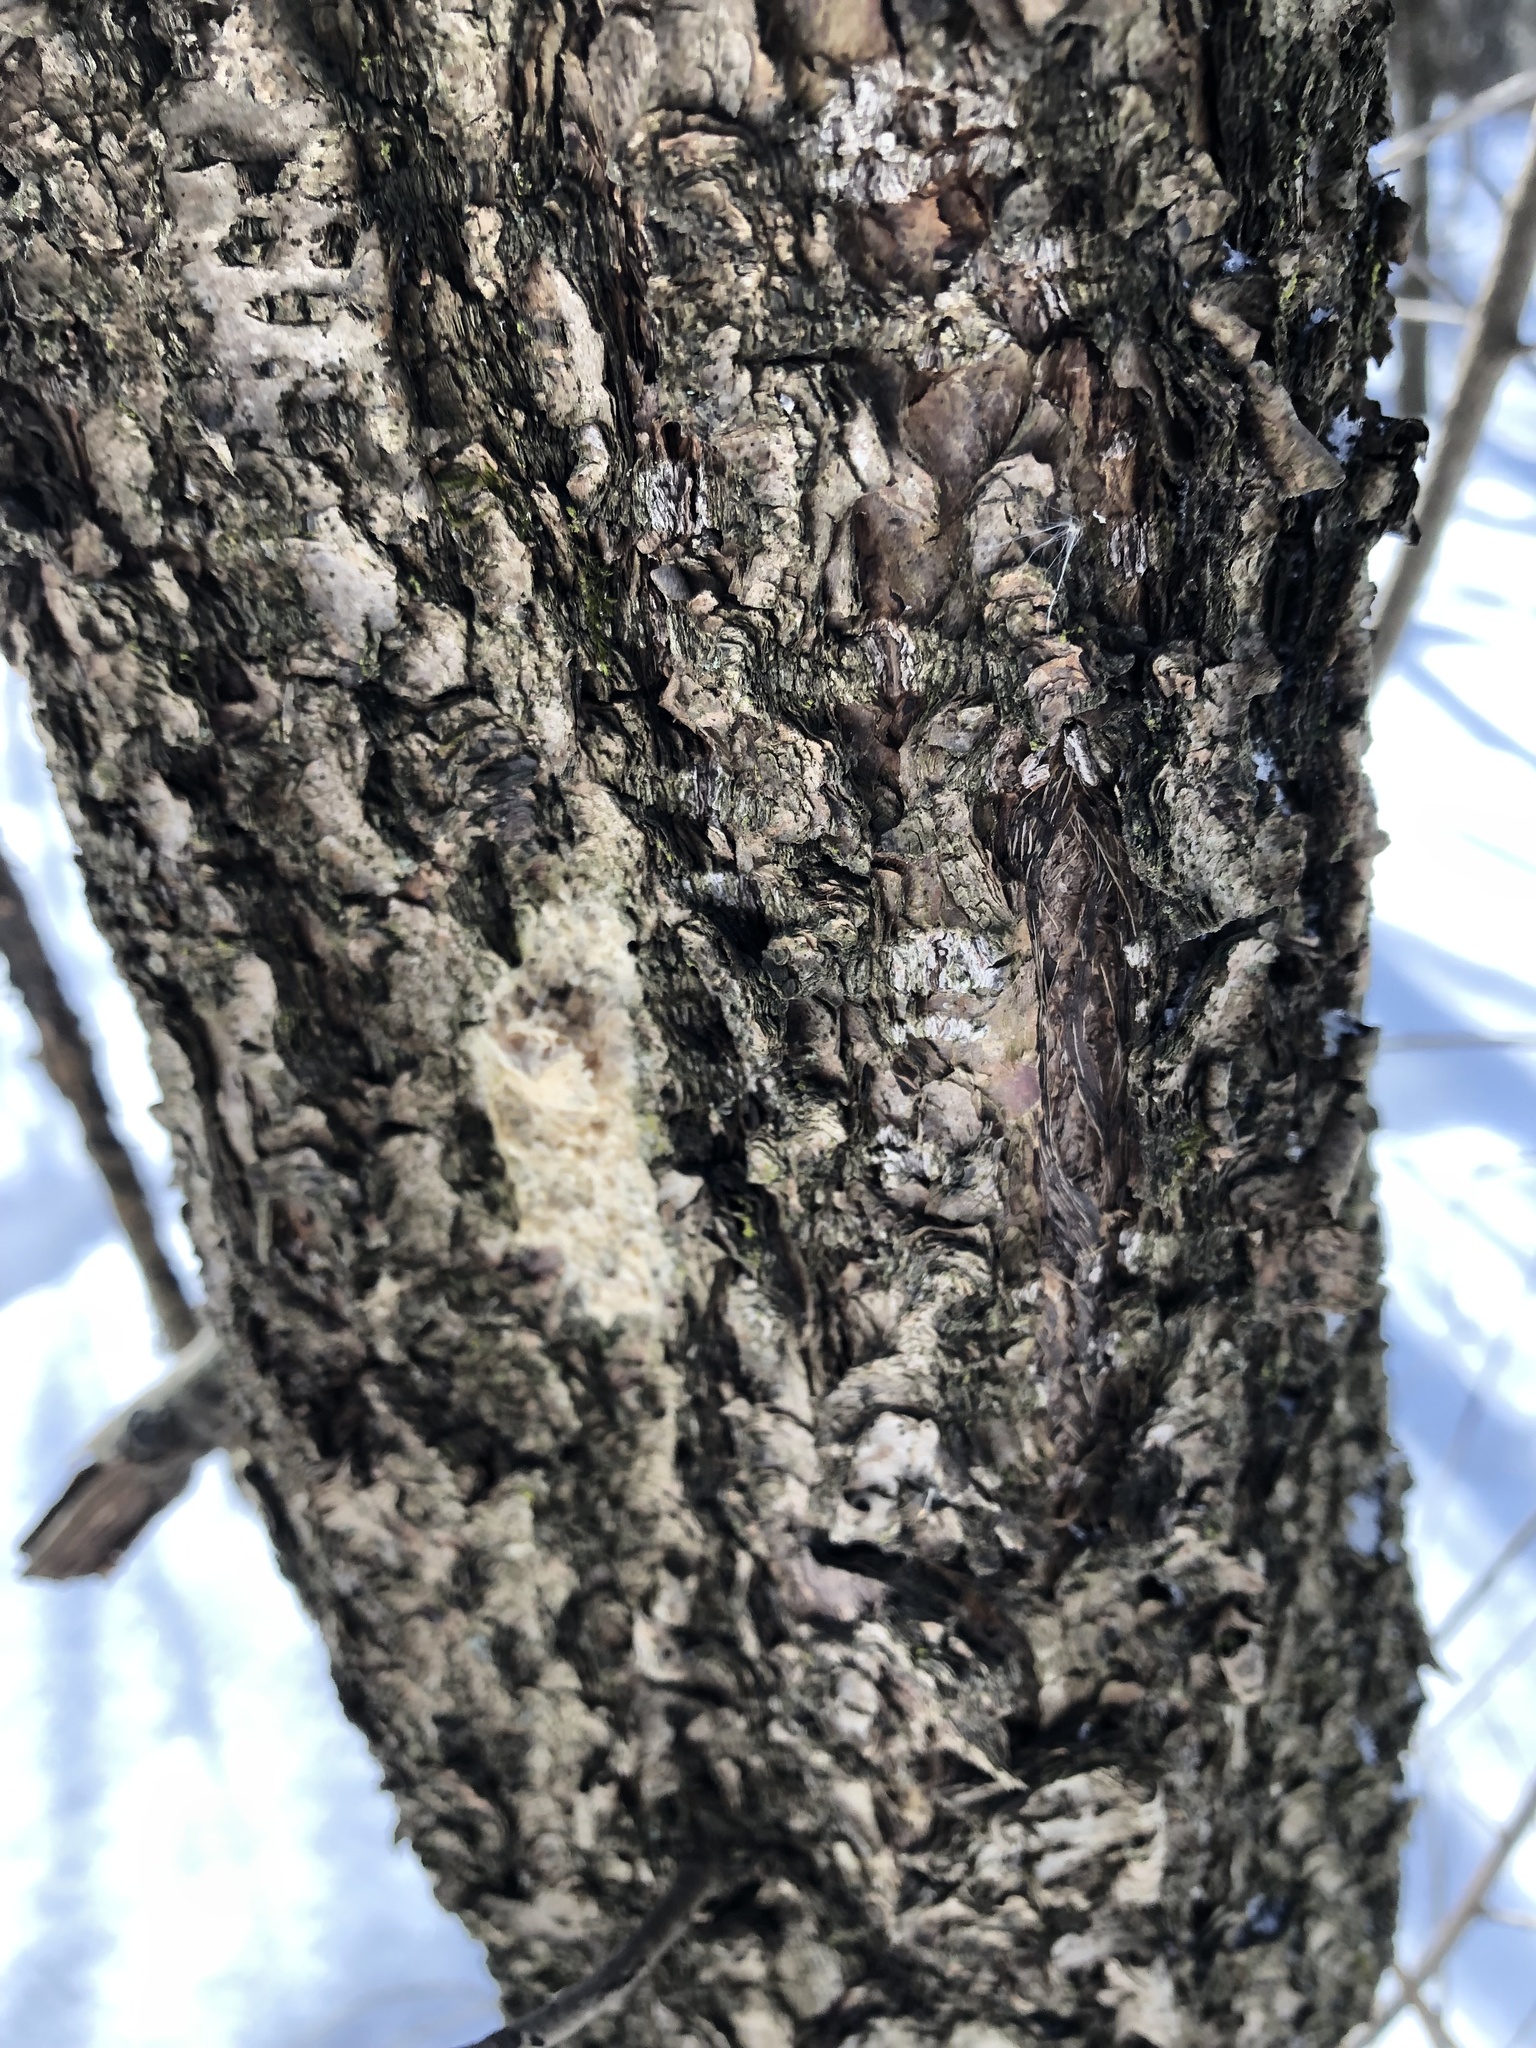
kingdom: Animalia
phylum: Arthropoda
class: Insecta
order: Lepidoptera
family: Erebidae
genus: Lymantria
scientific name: Lymantria dispar
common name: Gypsy moth
